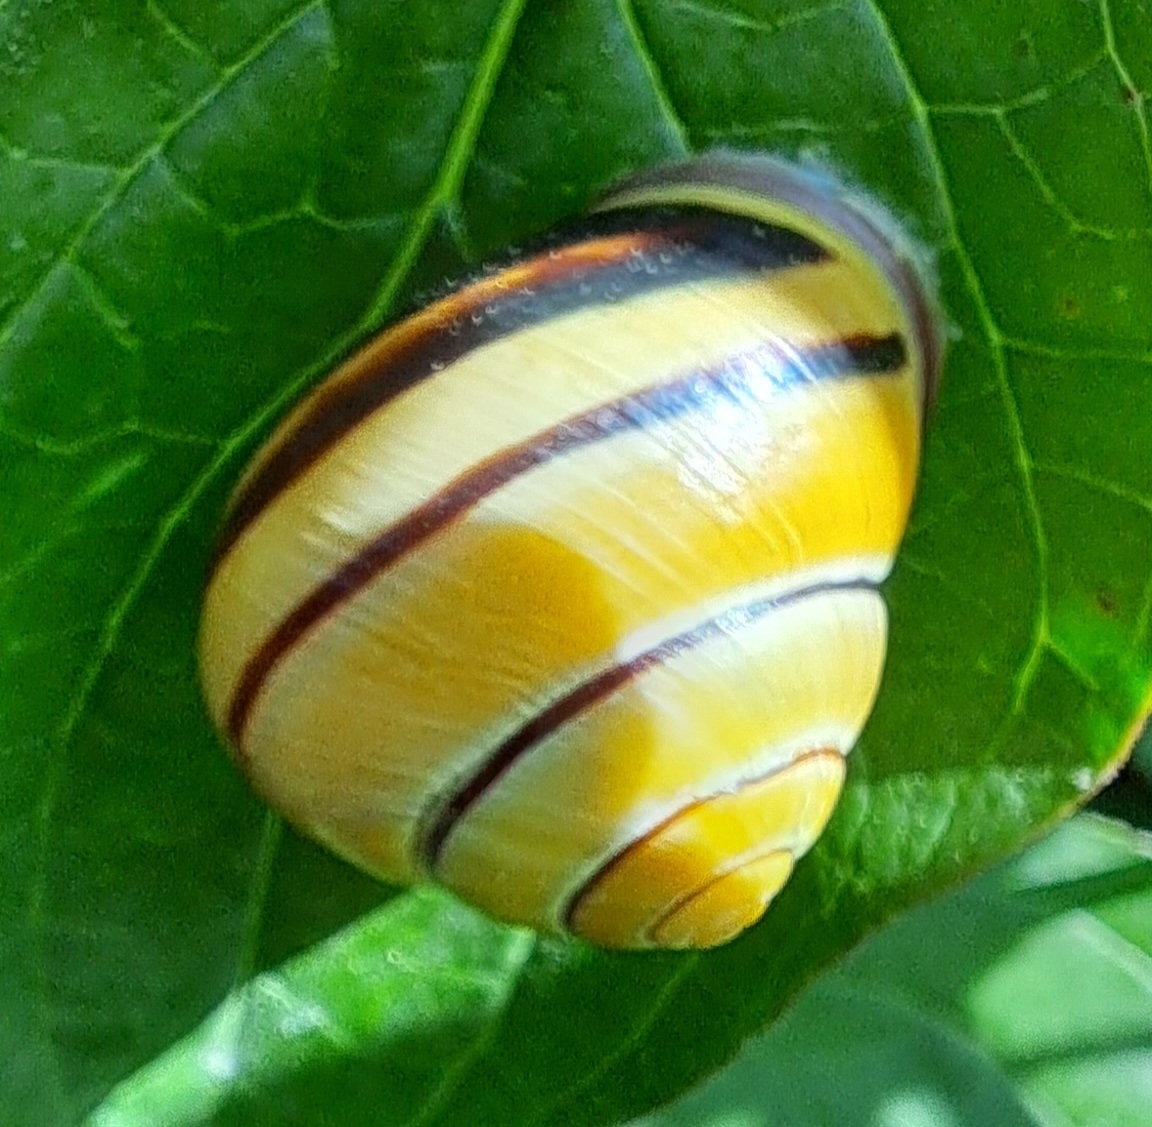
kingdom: Animalia
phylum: Mollusca
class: Gastropoda
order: Stylommatophora
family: Helicidae
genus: Cepaea
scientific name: Cepaea nemoralis
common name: Grovesnail
